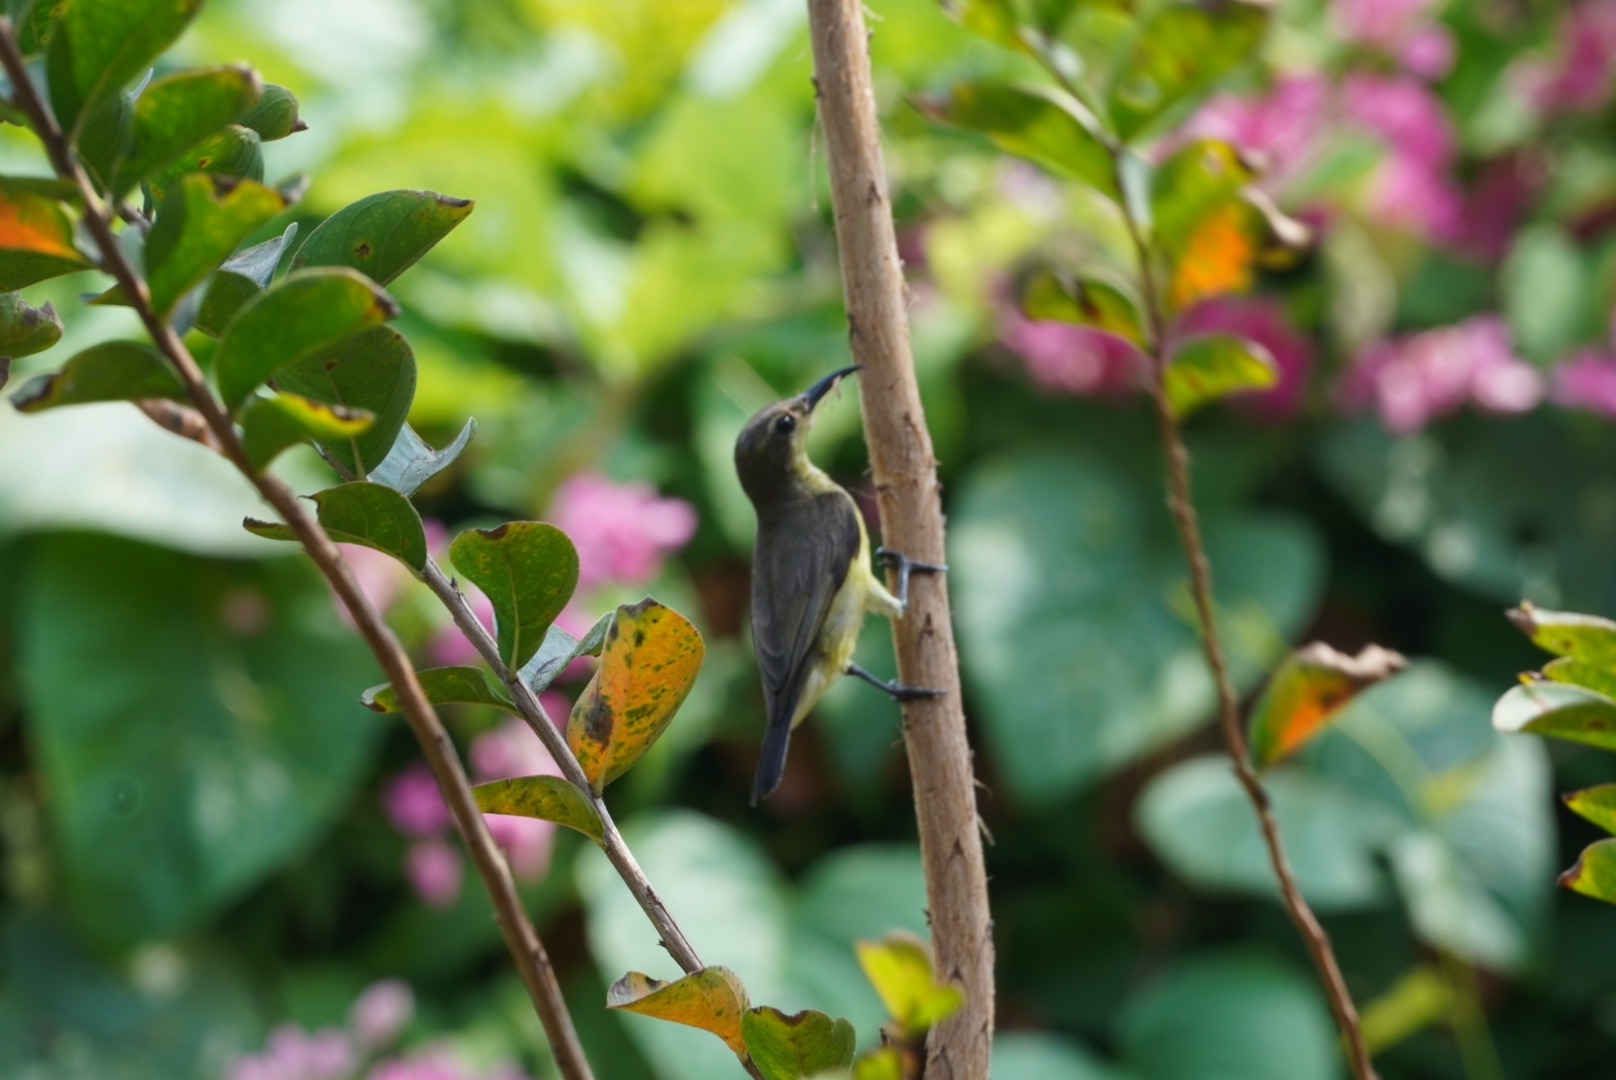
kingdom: Animalia
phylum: Chordata
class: Aves
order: Passeriformes
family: Nectariniidae
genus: Cinnyris
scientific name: Cinnyris
